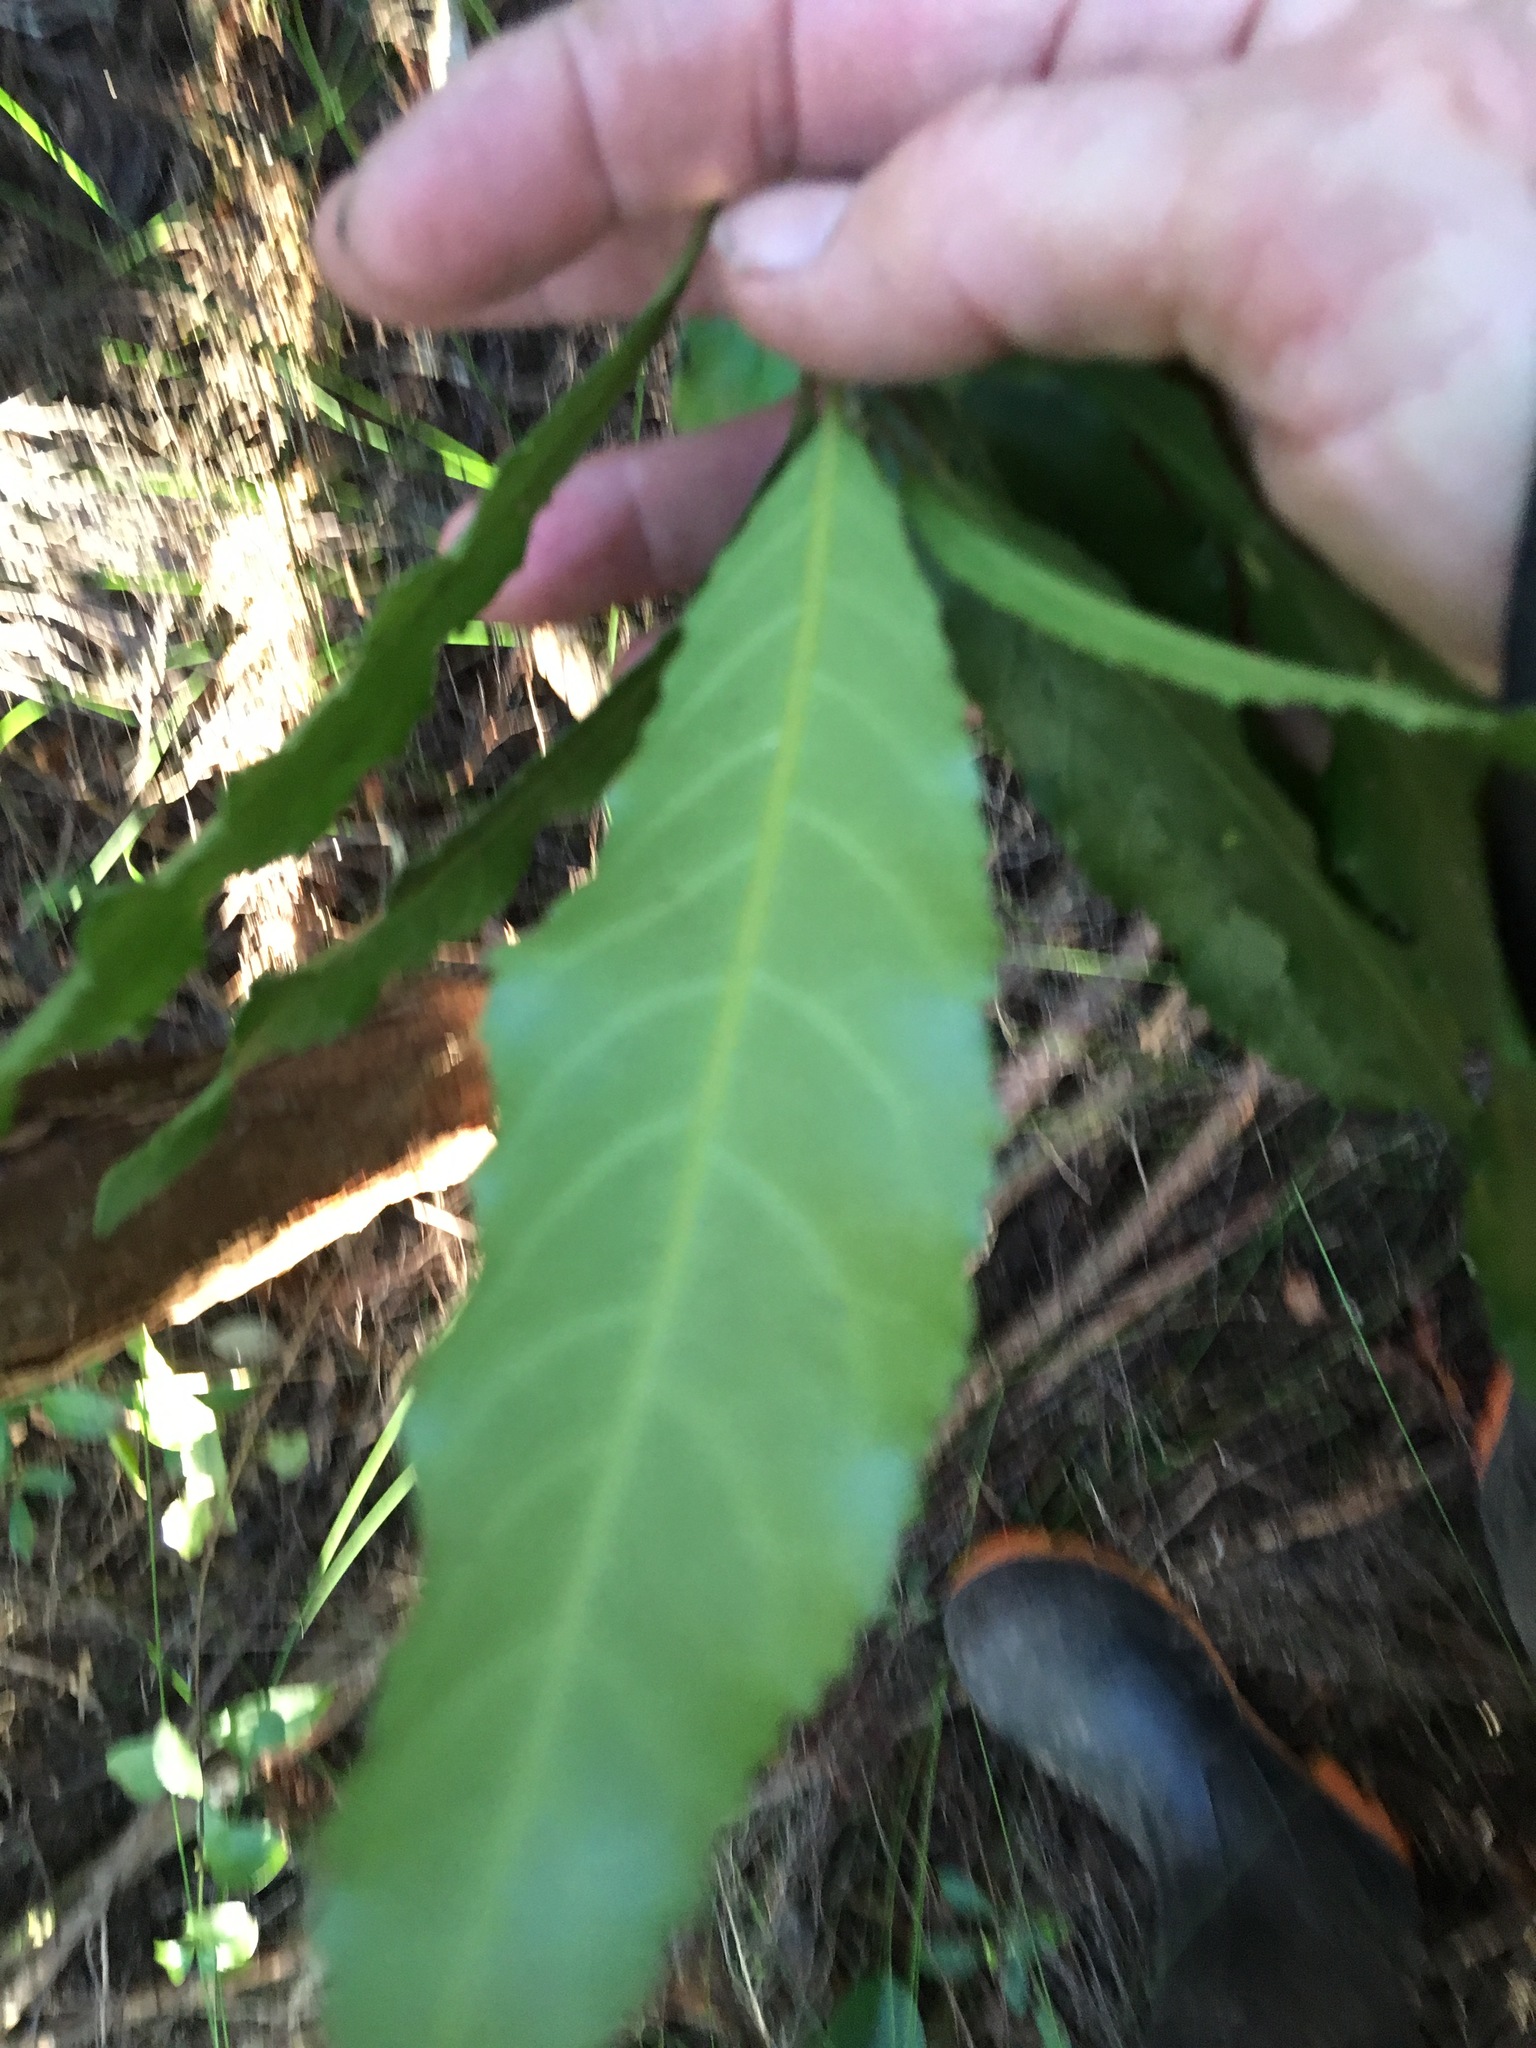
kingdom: Plantae
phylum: Tracheophyta
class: Magnoliopsida
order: Malpighiales
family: Violaceae
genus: Melicytus
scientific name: Melicytus ramiflorus
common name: Mahoe
